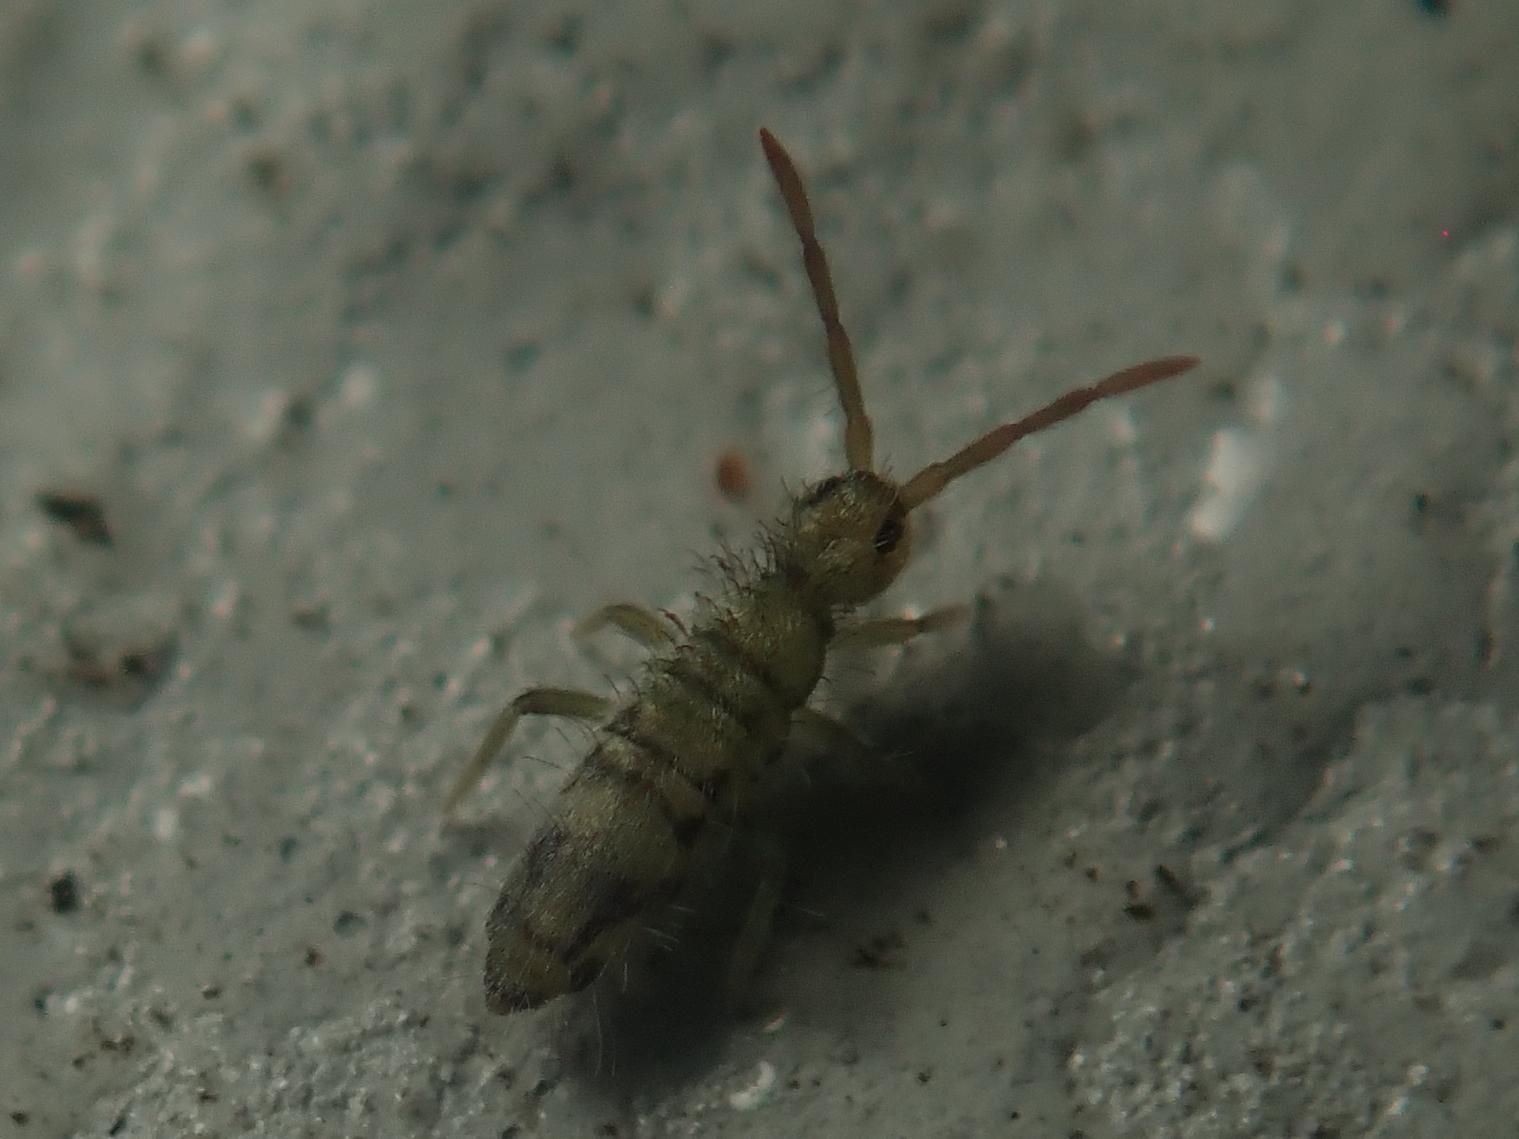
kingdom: Animalia
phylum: Arthropoda
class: Collembola
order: Entomobryomorpha
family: Entomobryidae
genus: Entomobrya
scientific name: Entomobrya nivalis
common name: Cosmopolitan springtail
